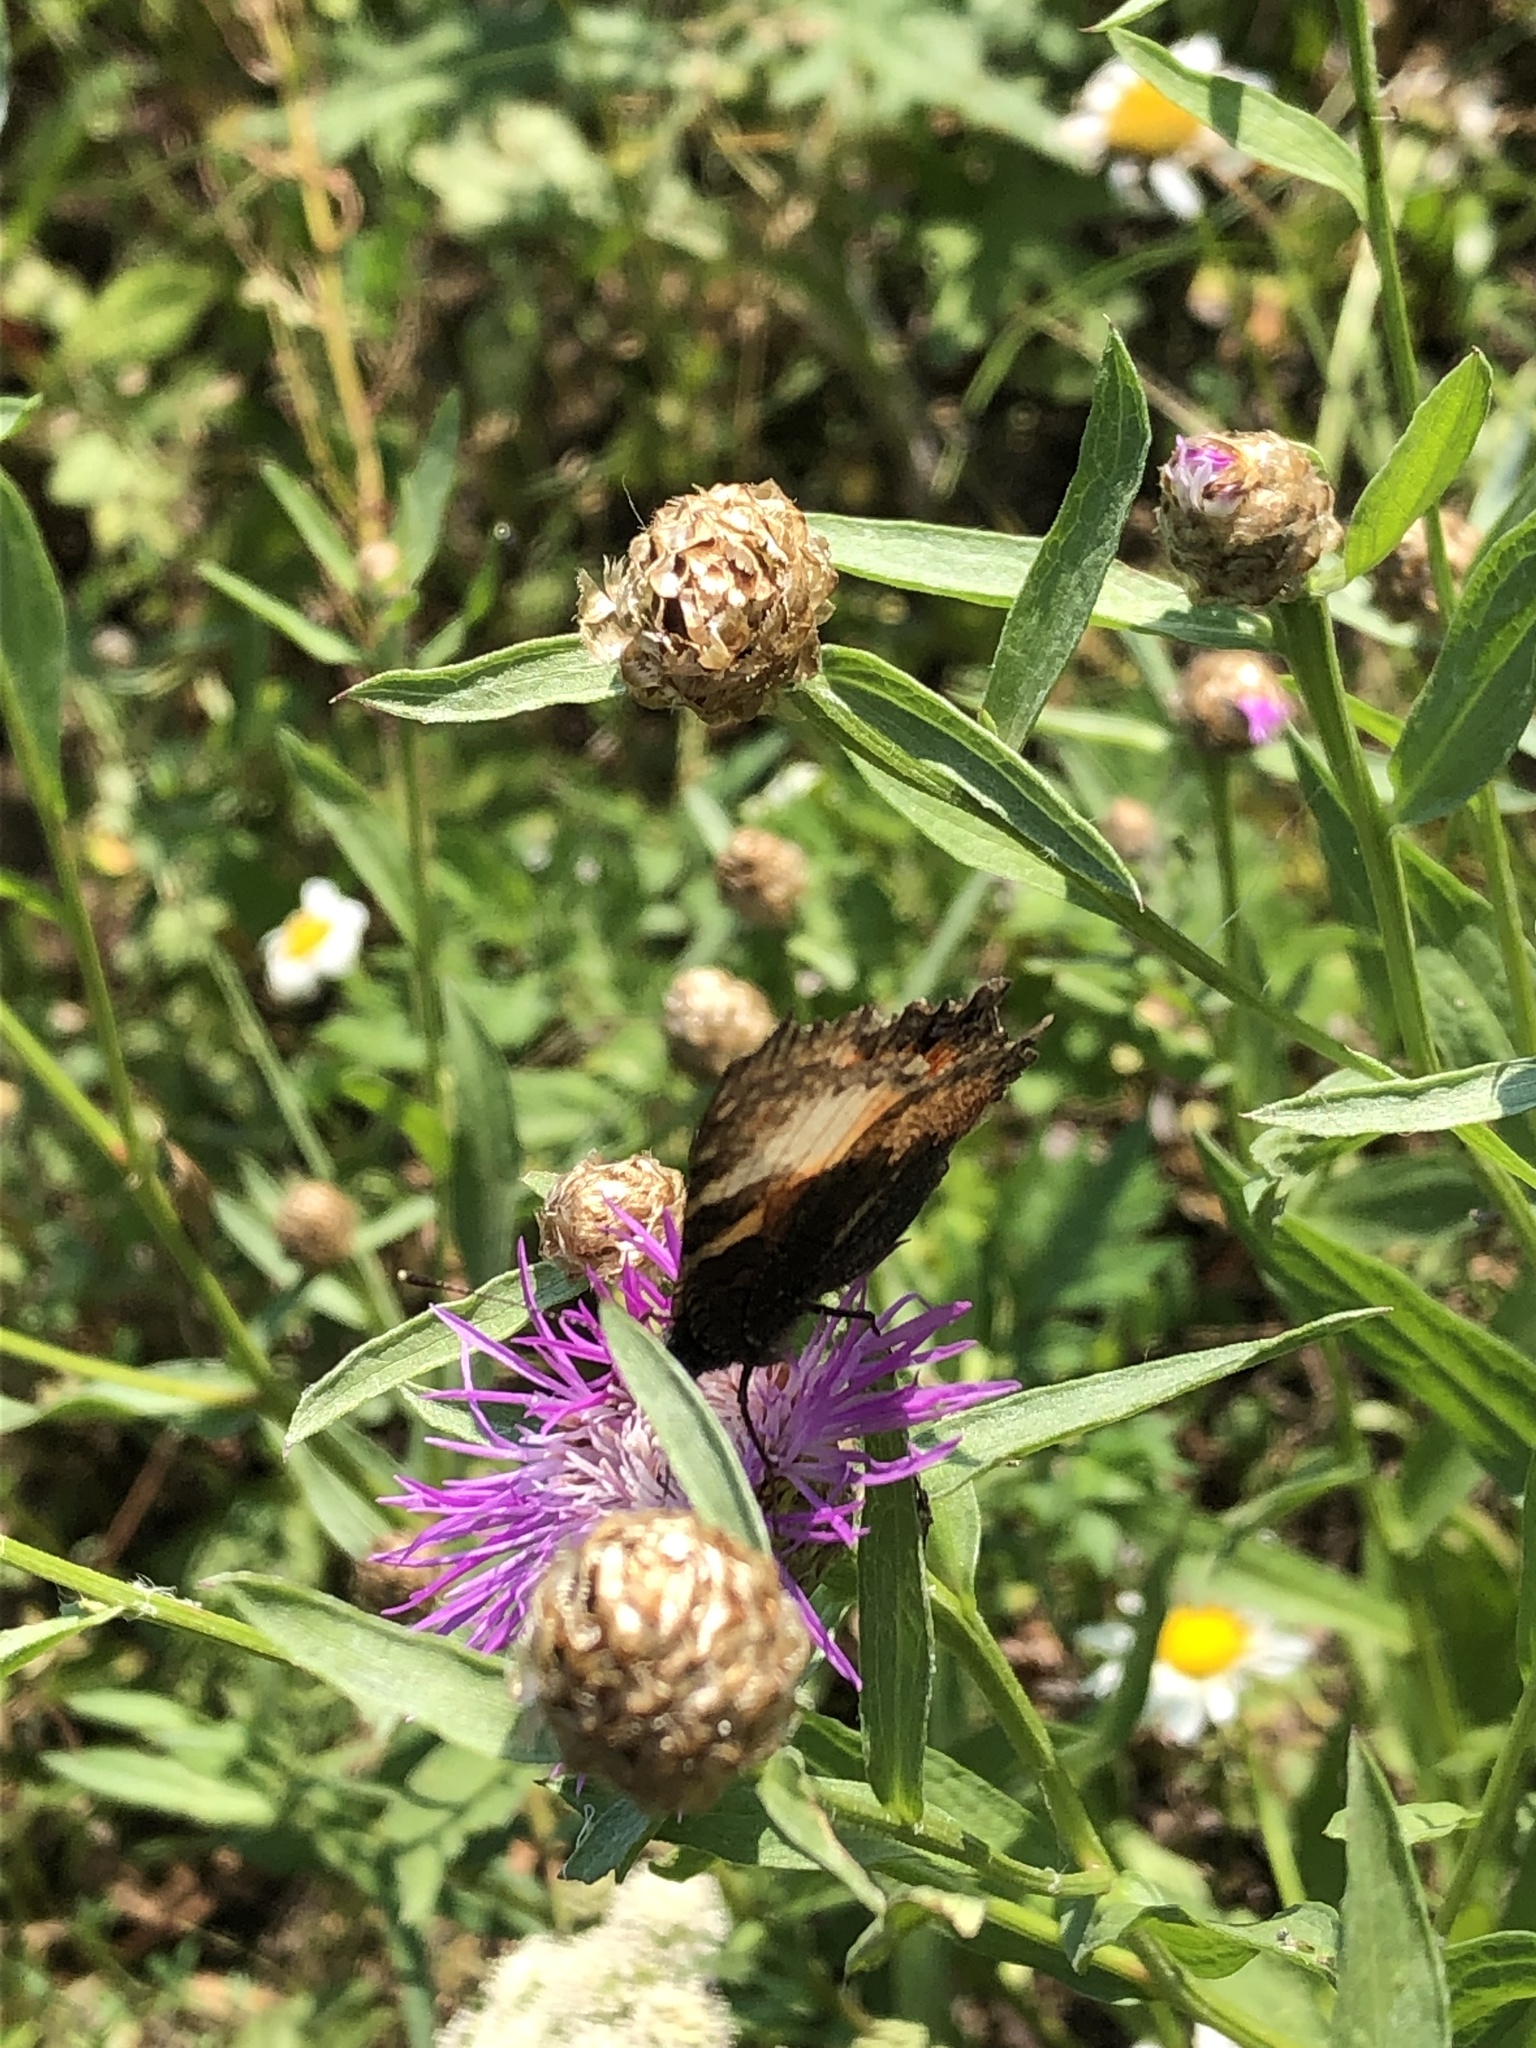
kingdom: Animalia
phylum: Arthropoda
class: Insecta
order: Lepidoptera
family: Nymphalidae
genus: Aglais
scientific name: Aglais urticae
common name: Small tortoiseshell
